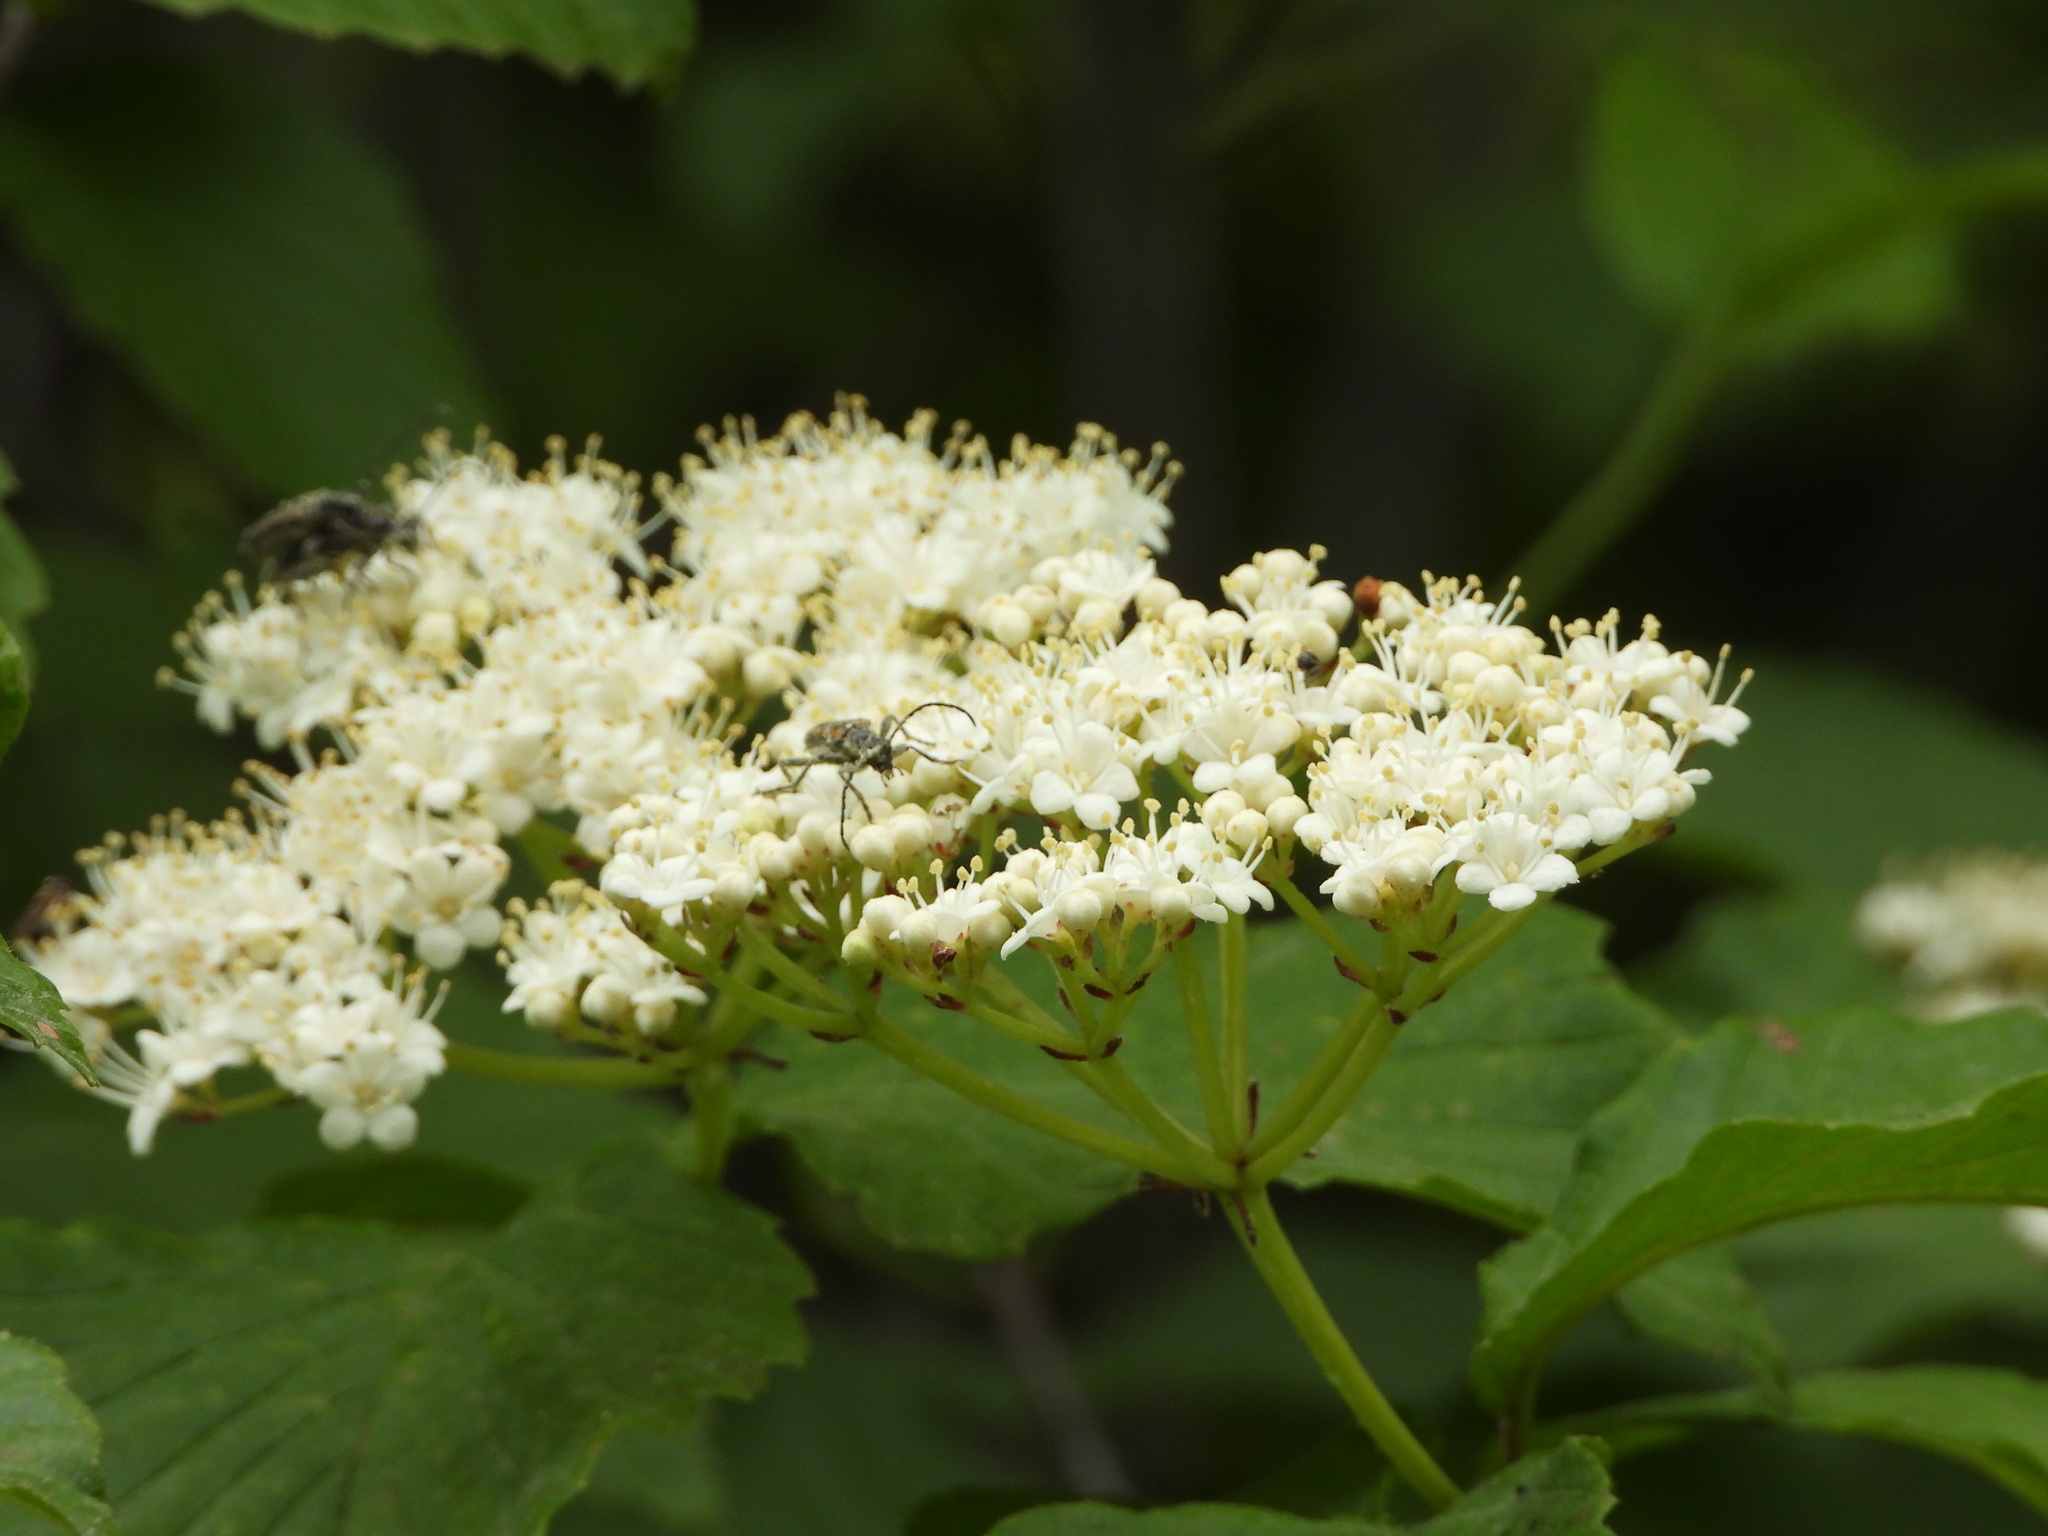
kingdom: Animalia
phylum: Arthropoda
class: Insecta
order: Coleoptera
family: Cerambycidae
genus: Strangalepta
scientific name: Strangalepta abbreviata
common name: Strangalepta flower longhorn beetle
